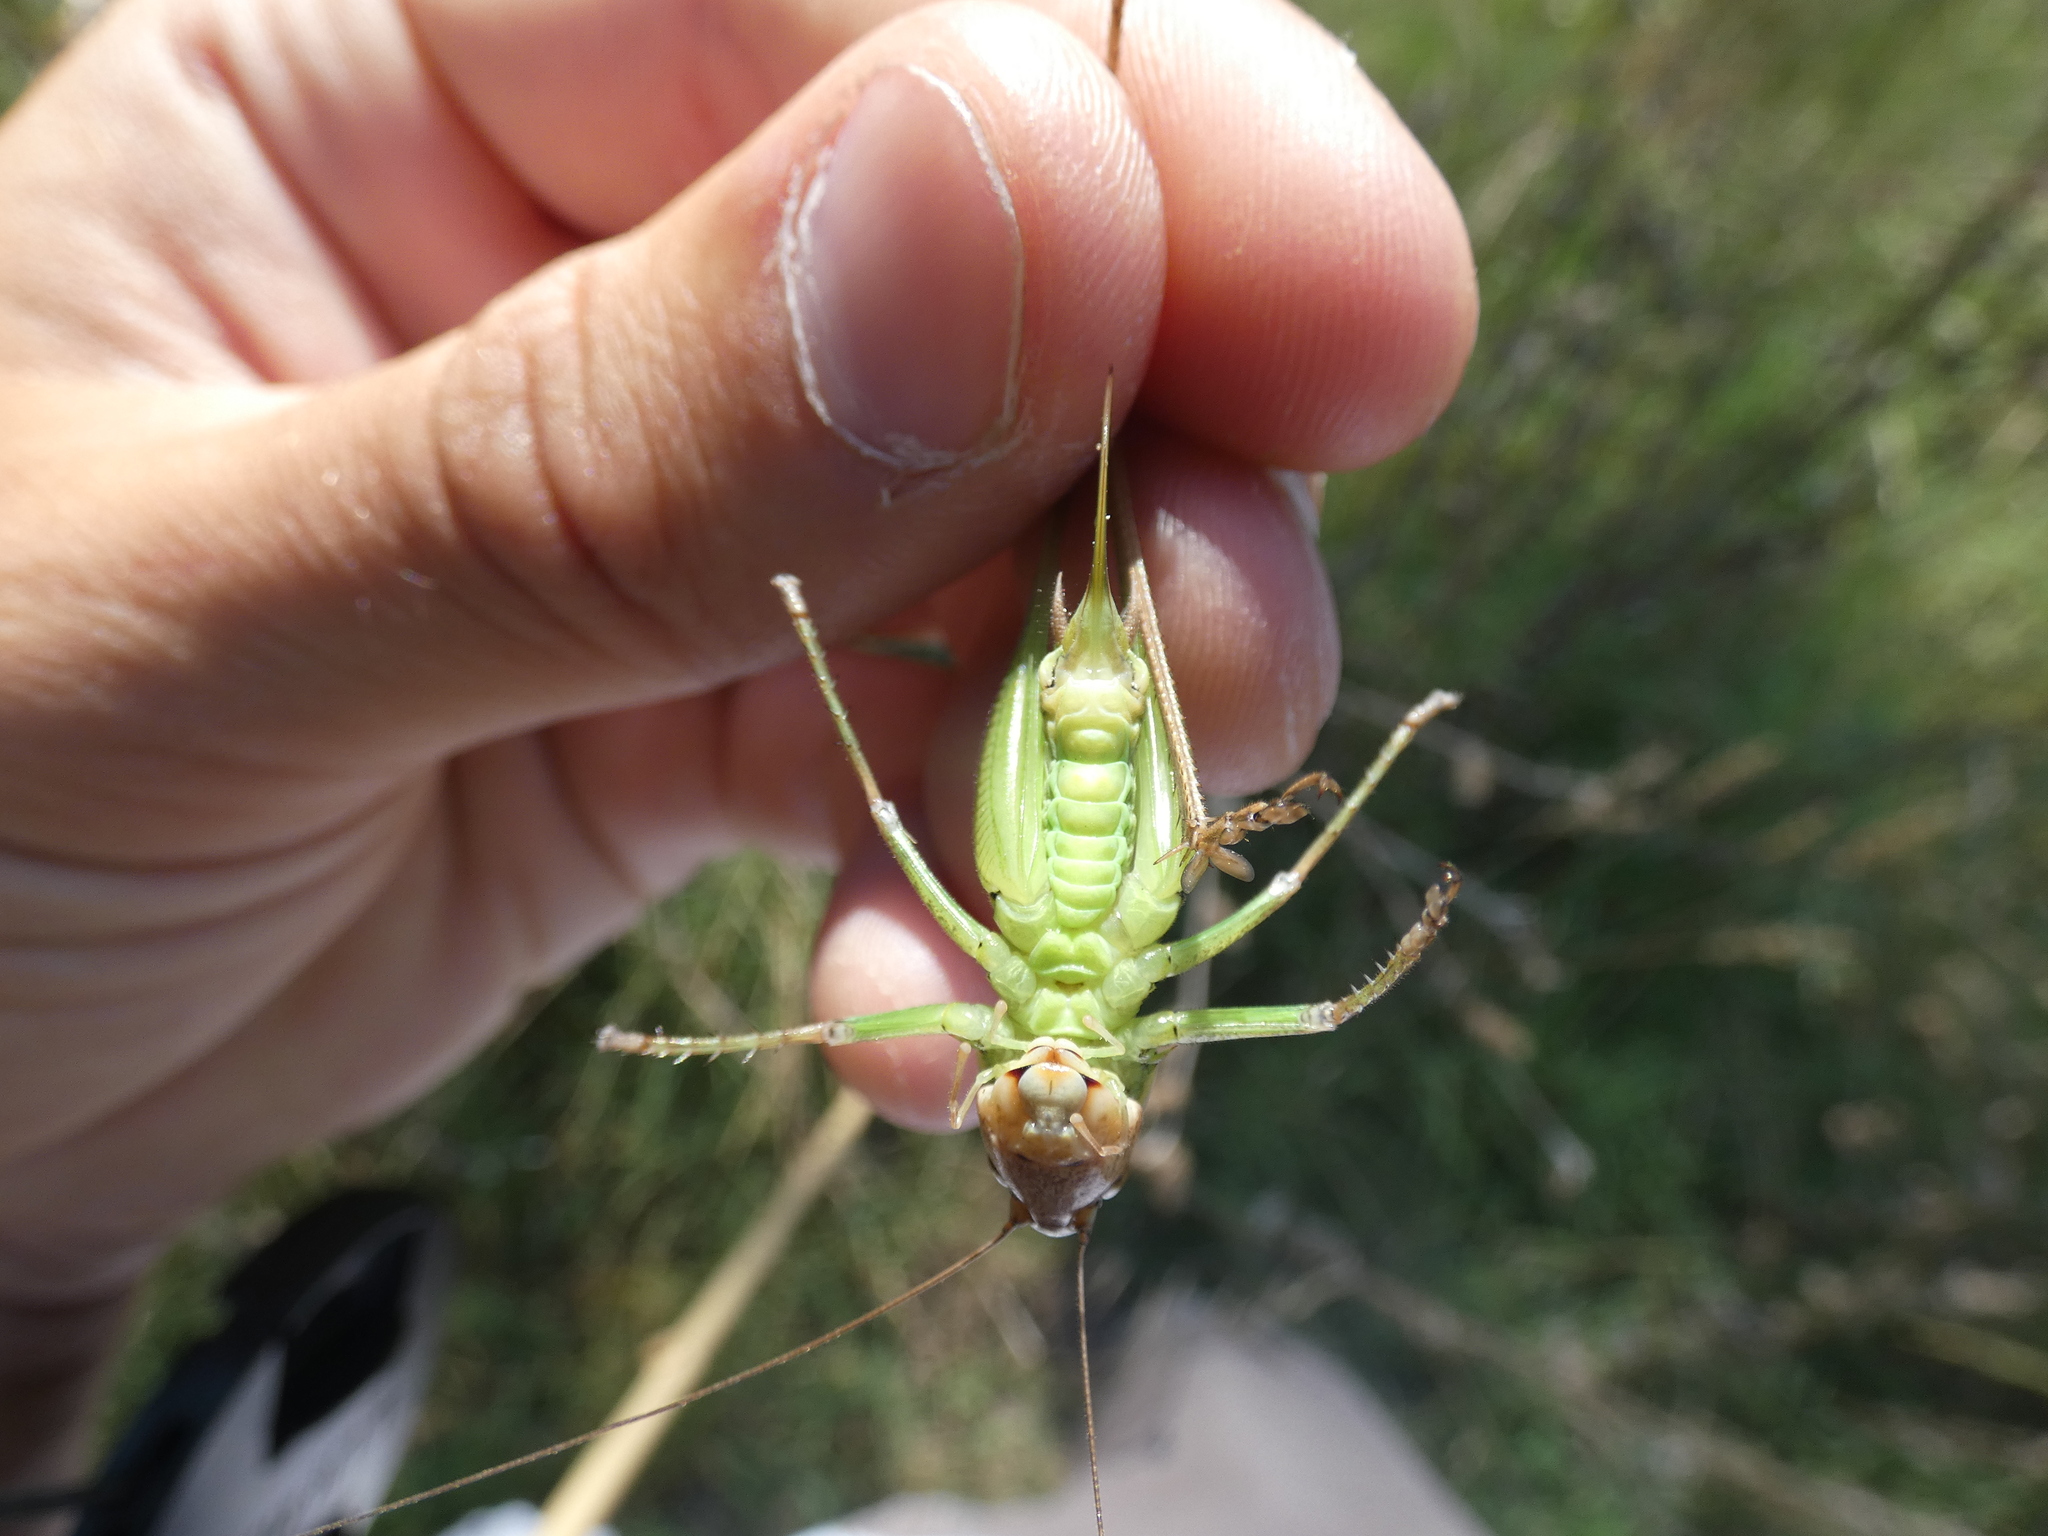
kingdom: Animalia
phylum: Arthropoda
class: Insecta
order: Orthoptera
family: Tettigoniidae
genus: Sepiana
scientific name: Sepiana sepium
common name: Sepia bush-cricket
